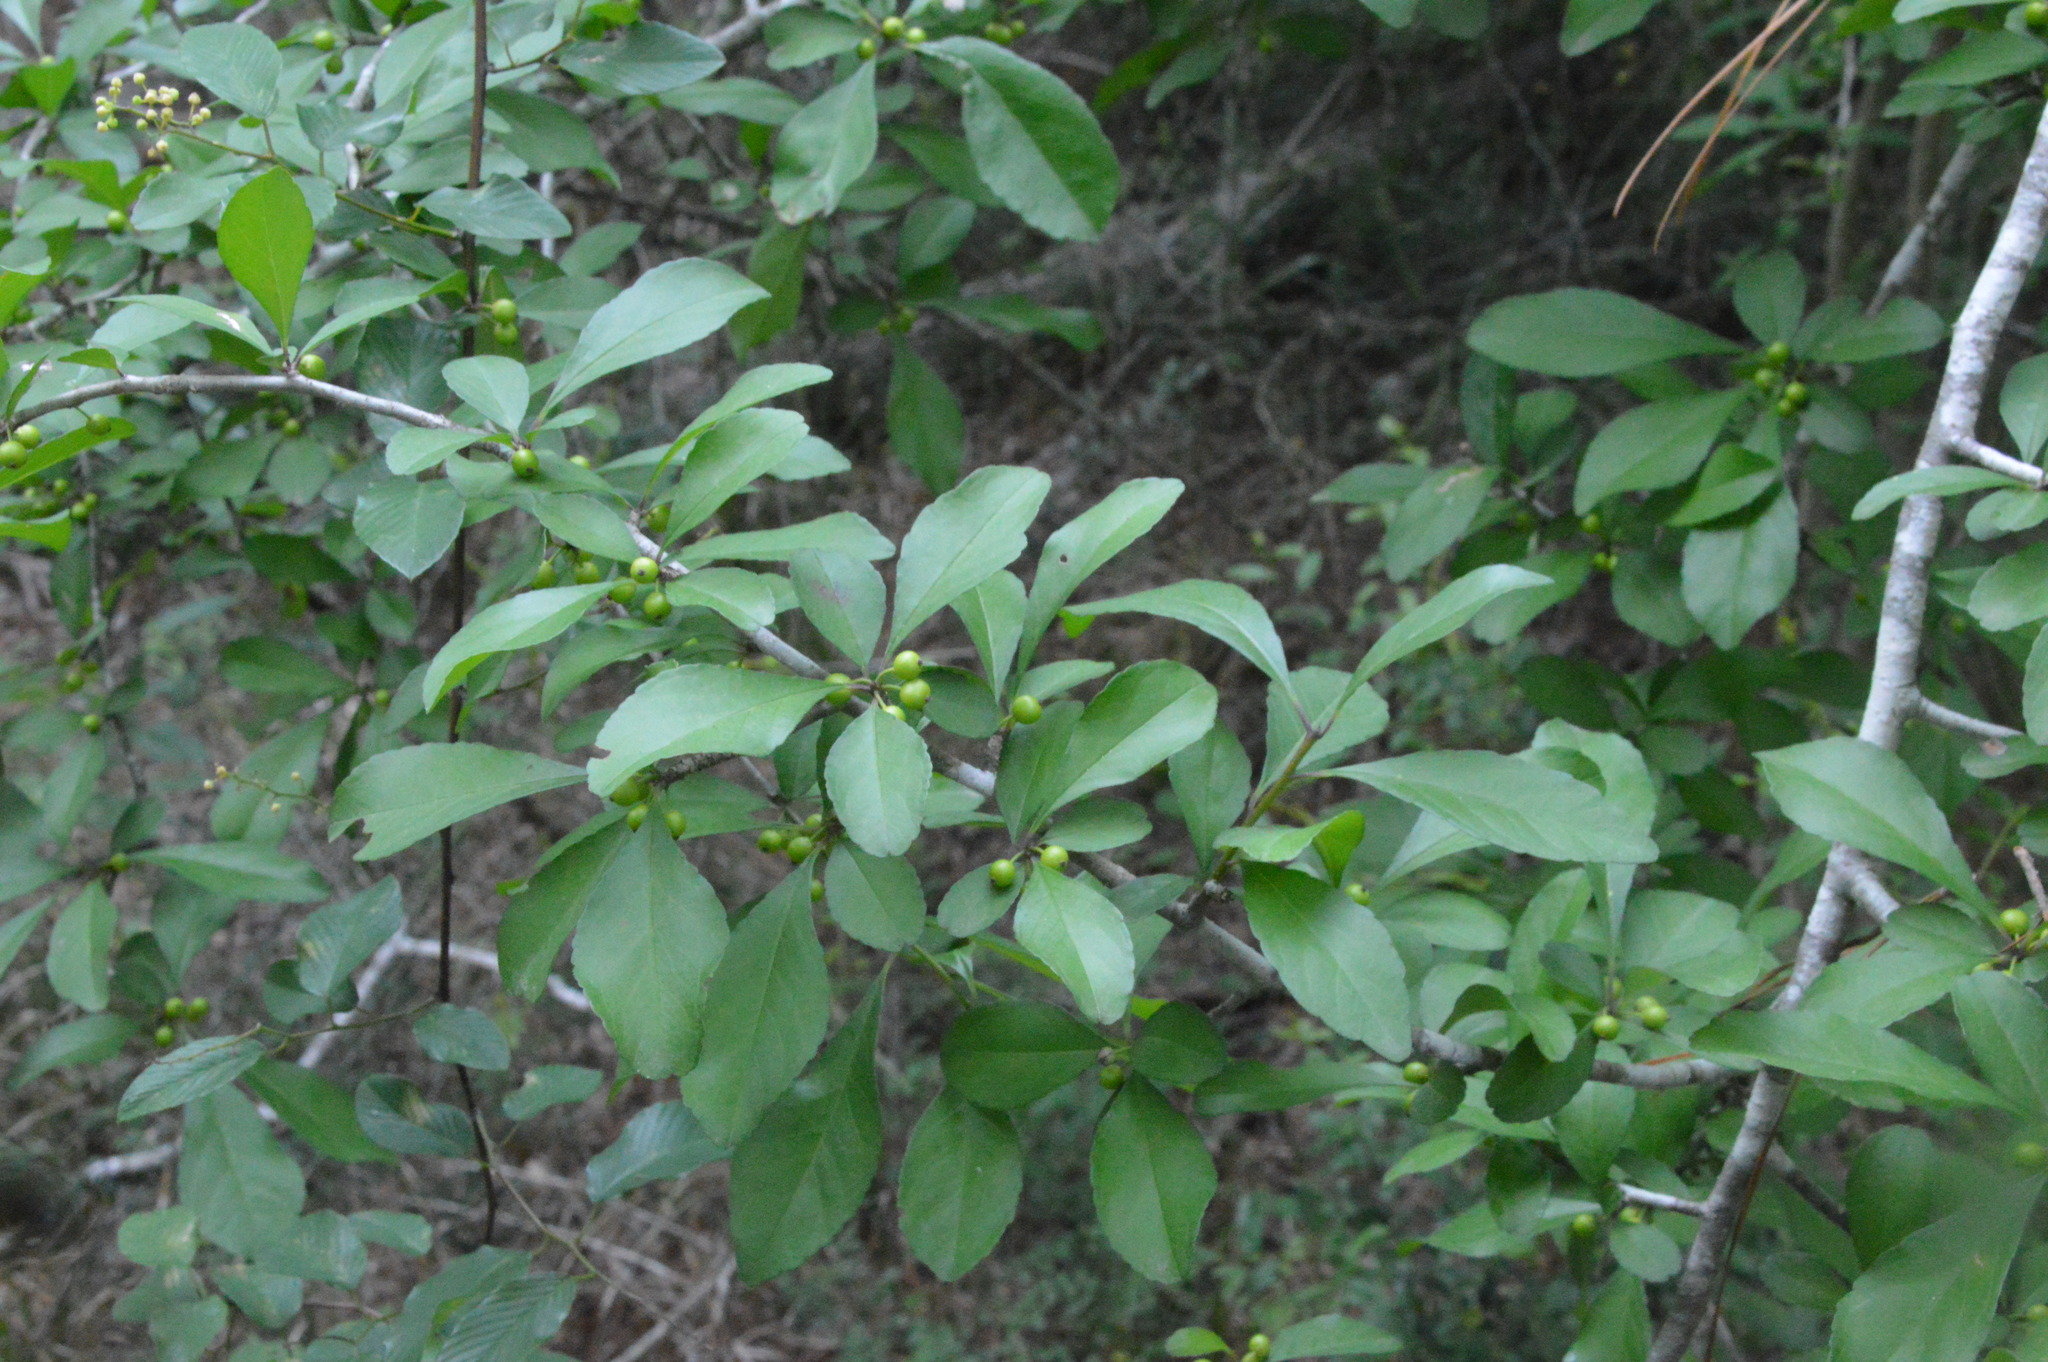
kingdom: Plantae
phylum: Tracheophyta
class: Magnoliopsida
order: Aquifoliales
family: Aquifoliaceae
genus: Ilex
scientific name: Ilex decidua
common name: Possum-haw
